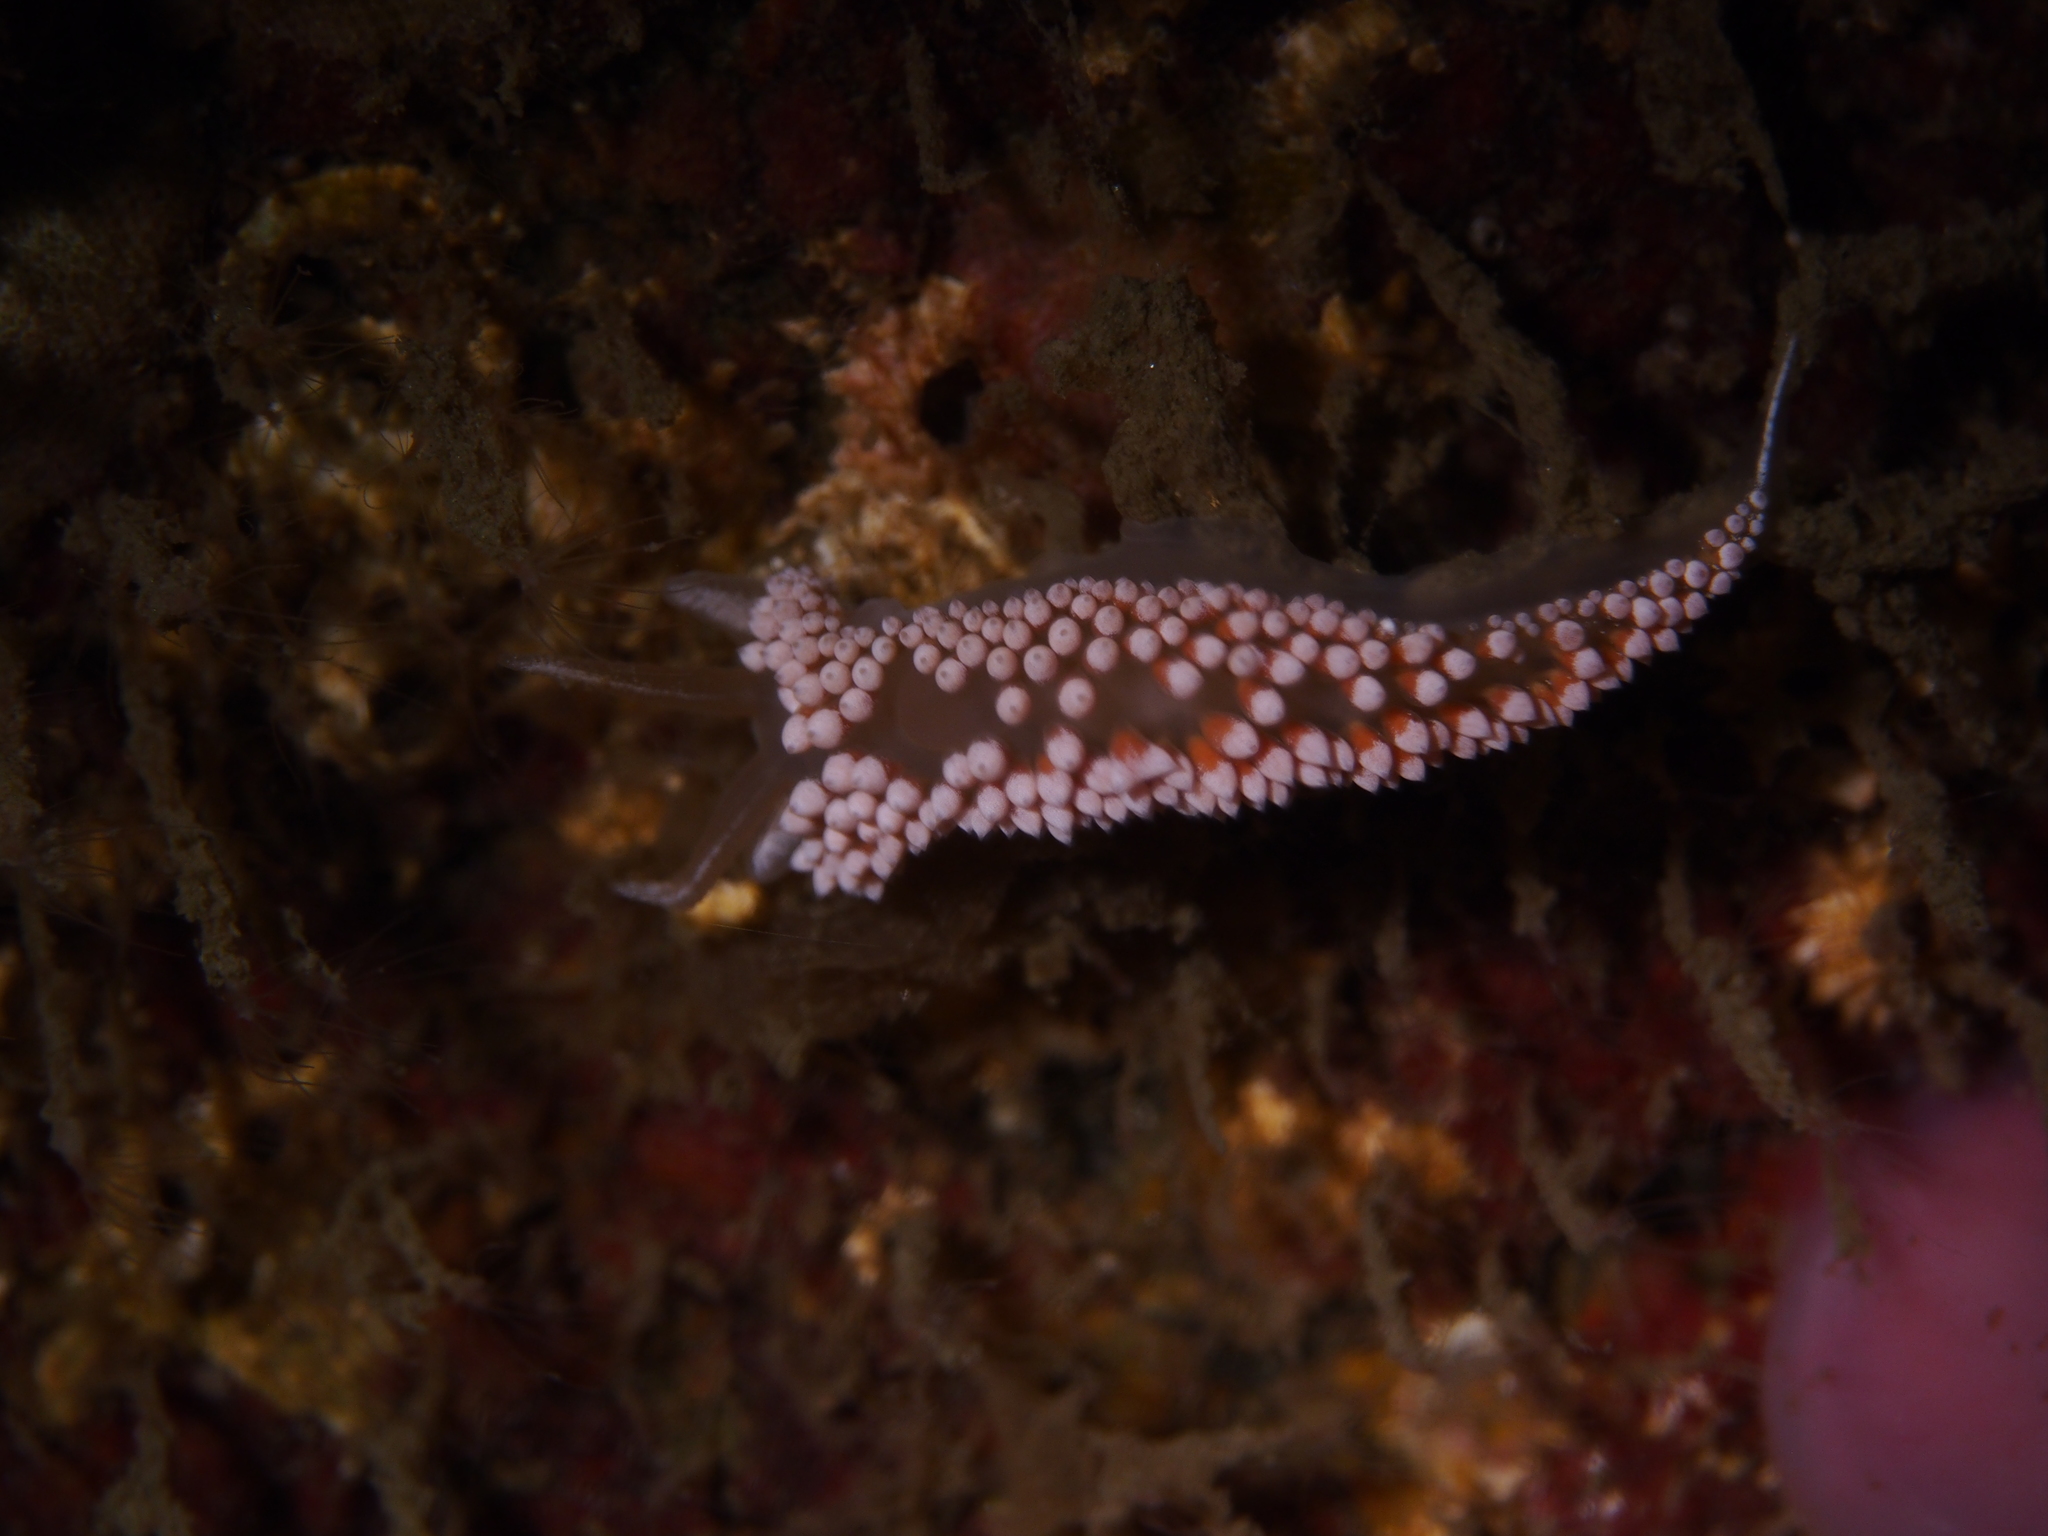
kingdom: Animalia
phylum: Mollusca
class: Gastropoda
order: Nudibranchia
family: Coryphellidae
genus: Coryphella
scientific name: Coryphella verrucosa
